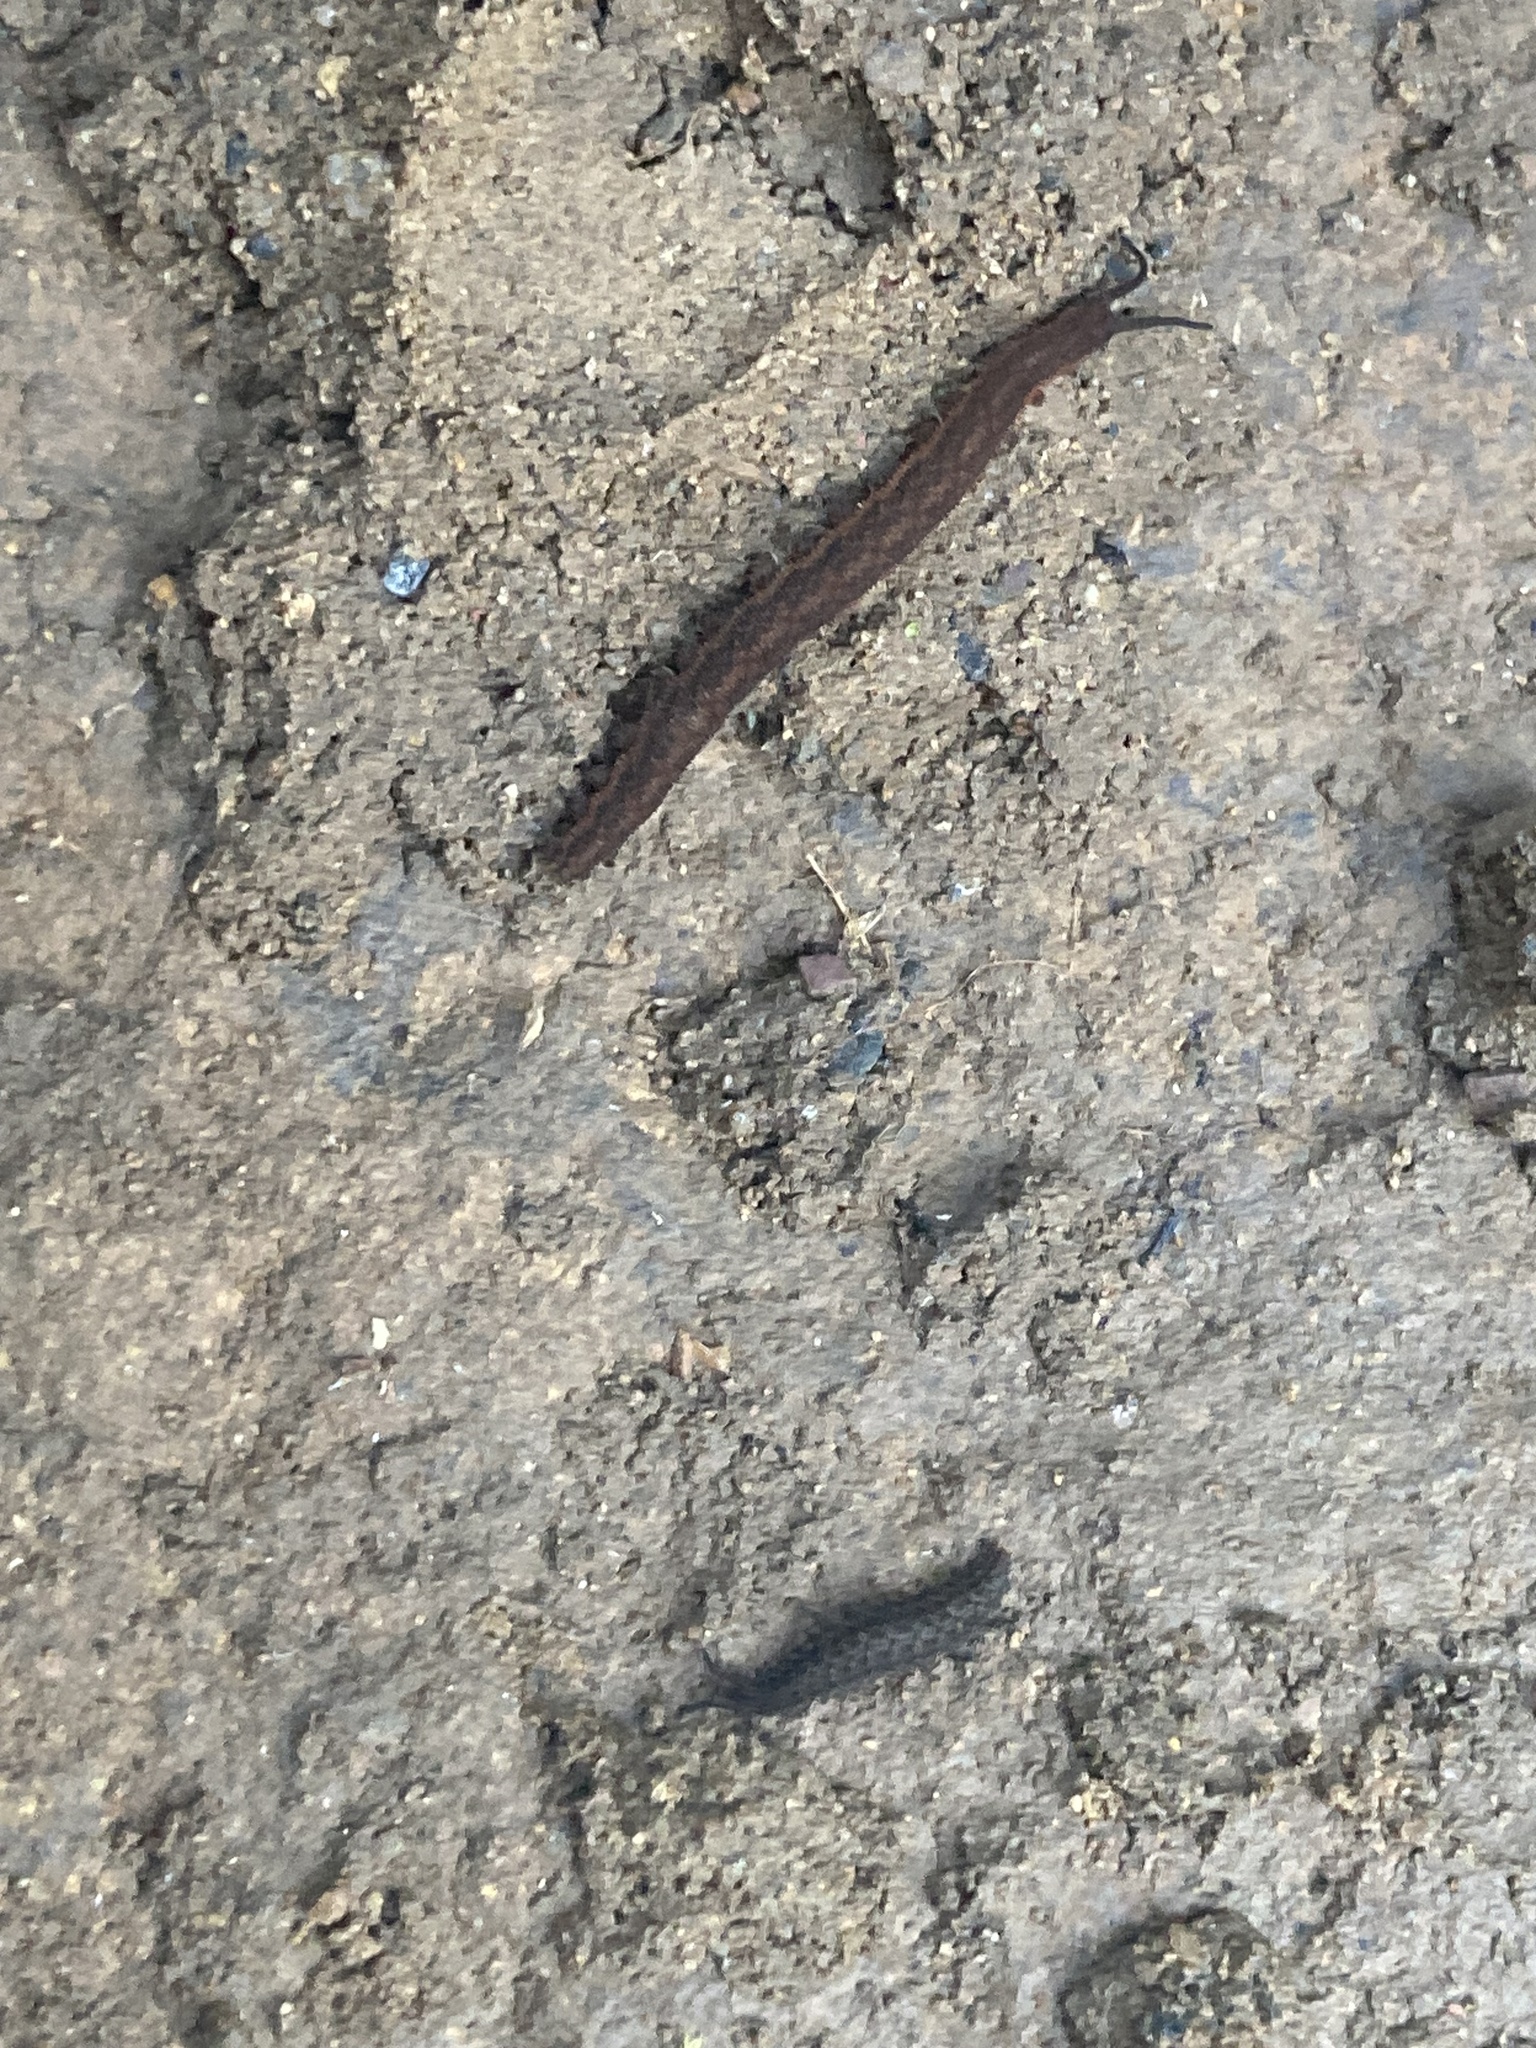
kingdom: Animalia
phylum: Onychophora
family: Peripatopsidae
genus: Anoplokaros
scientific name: Anoplokaros keerensis
